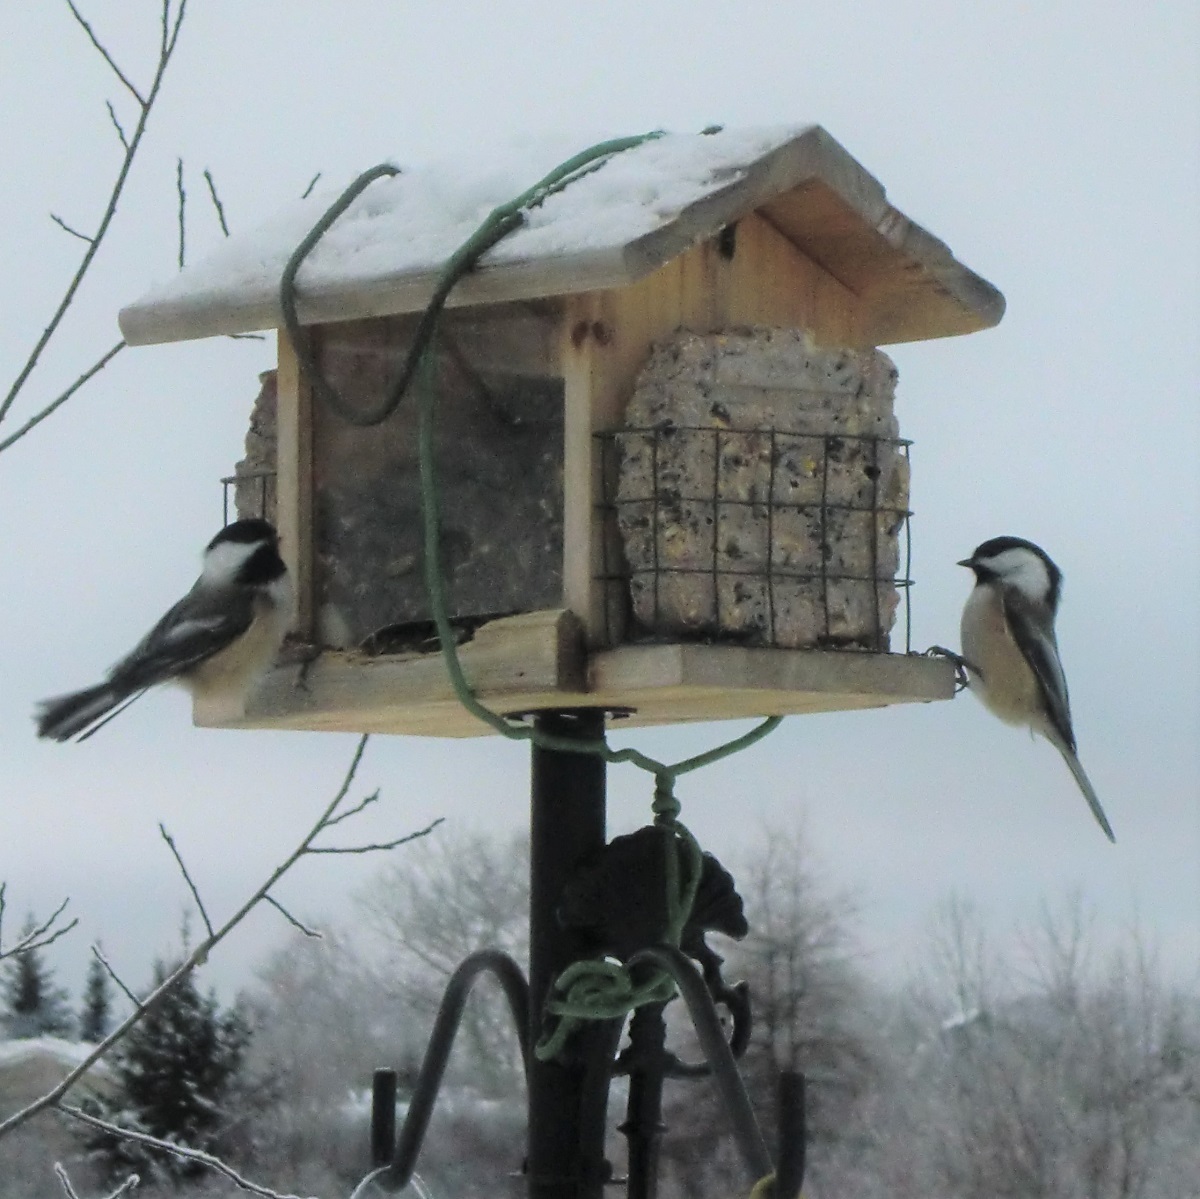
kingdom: Animalia
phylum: Chordata
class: Aves
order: Passeriformes
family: Paridae
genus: Poecile
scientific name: Poecile atricapillus
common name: Black-capped chickadee
